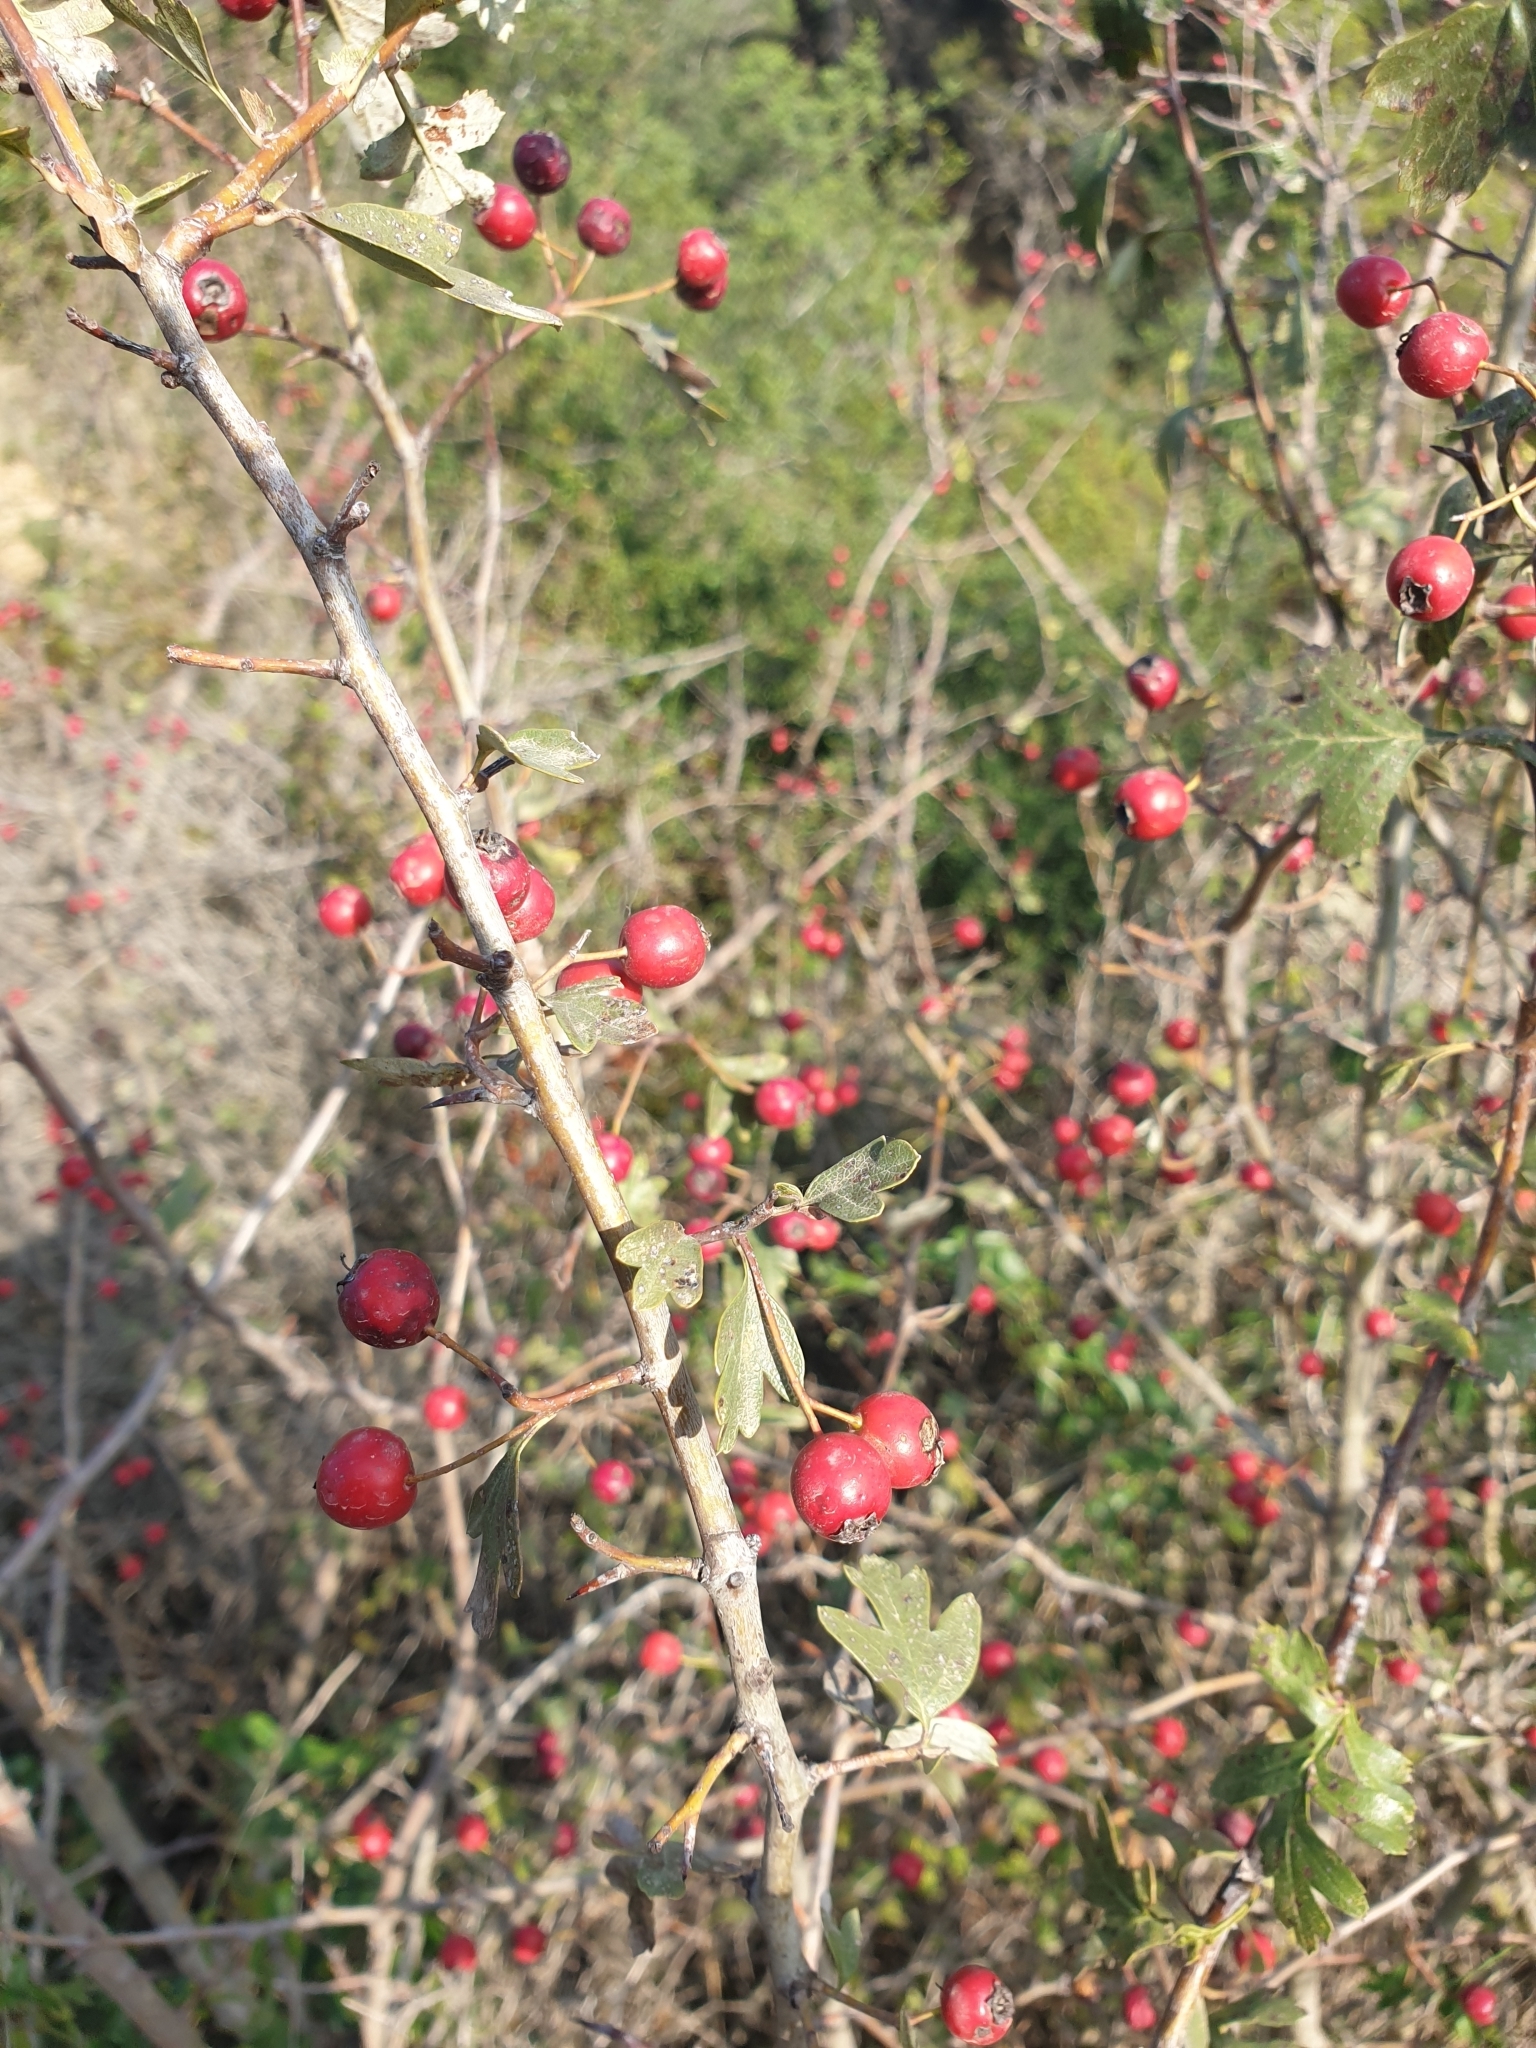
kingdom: Plantae
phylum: Tracheophyta
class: Magnoliopsida
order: Rosales
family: Rosaceae
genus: Crataegus
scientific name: Crataegus monogyna
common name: Hawthorn
